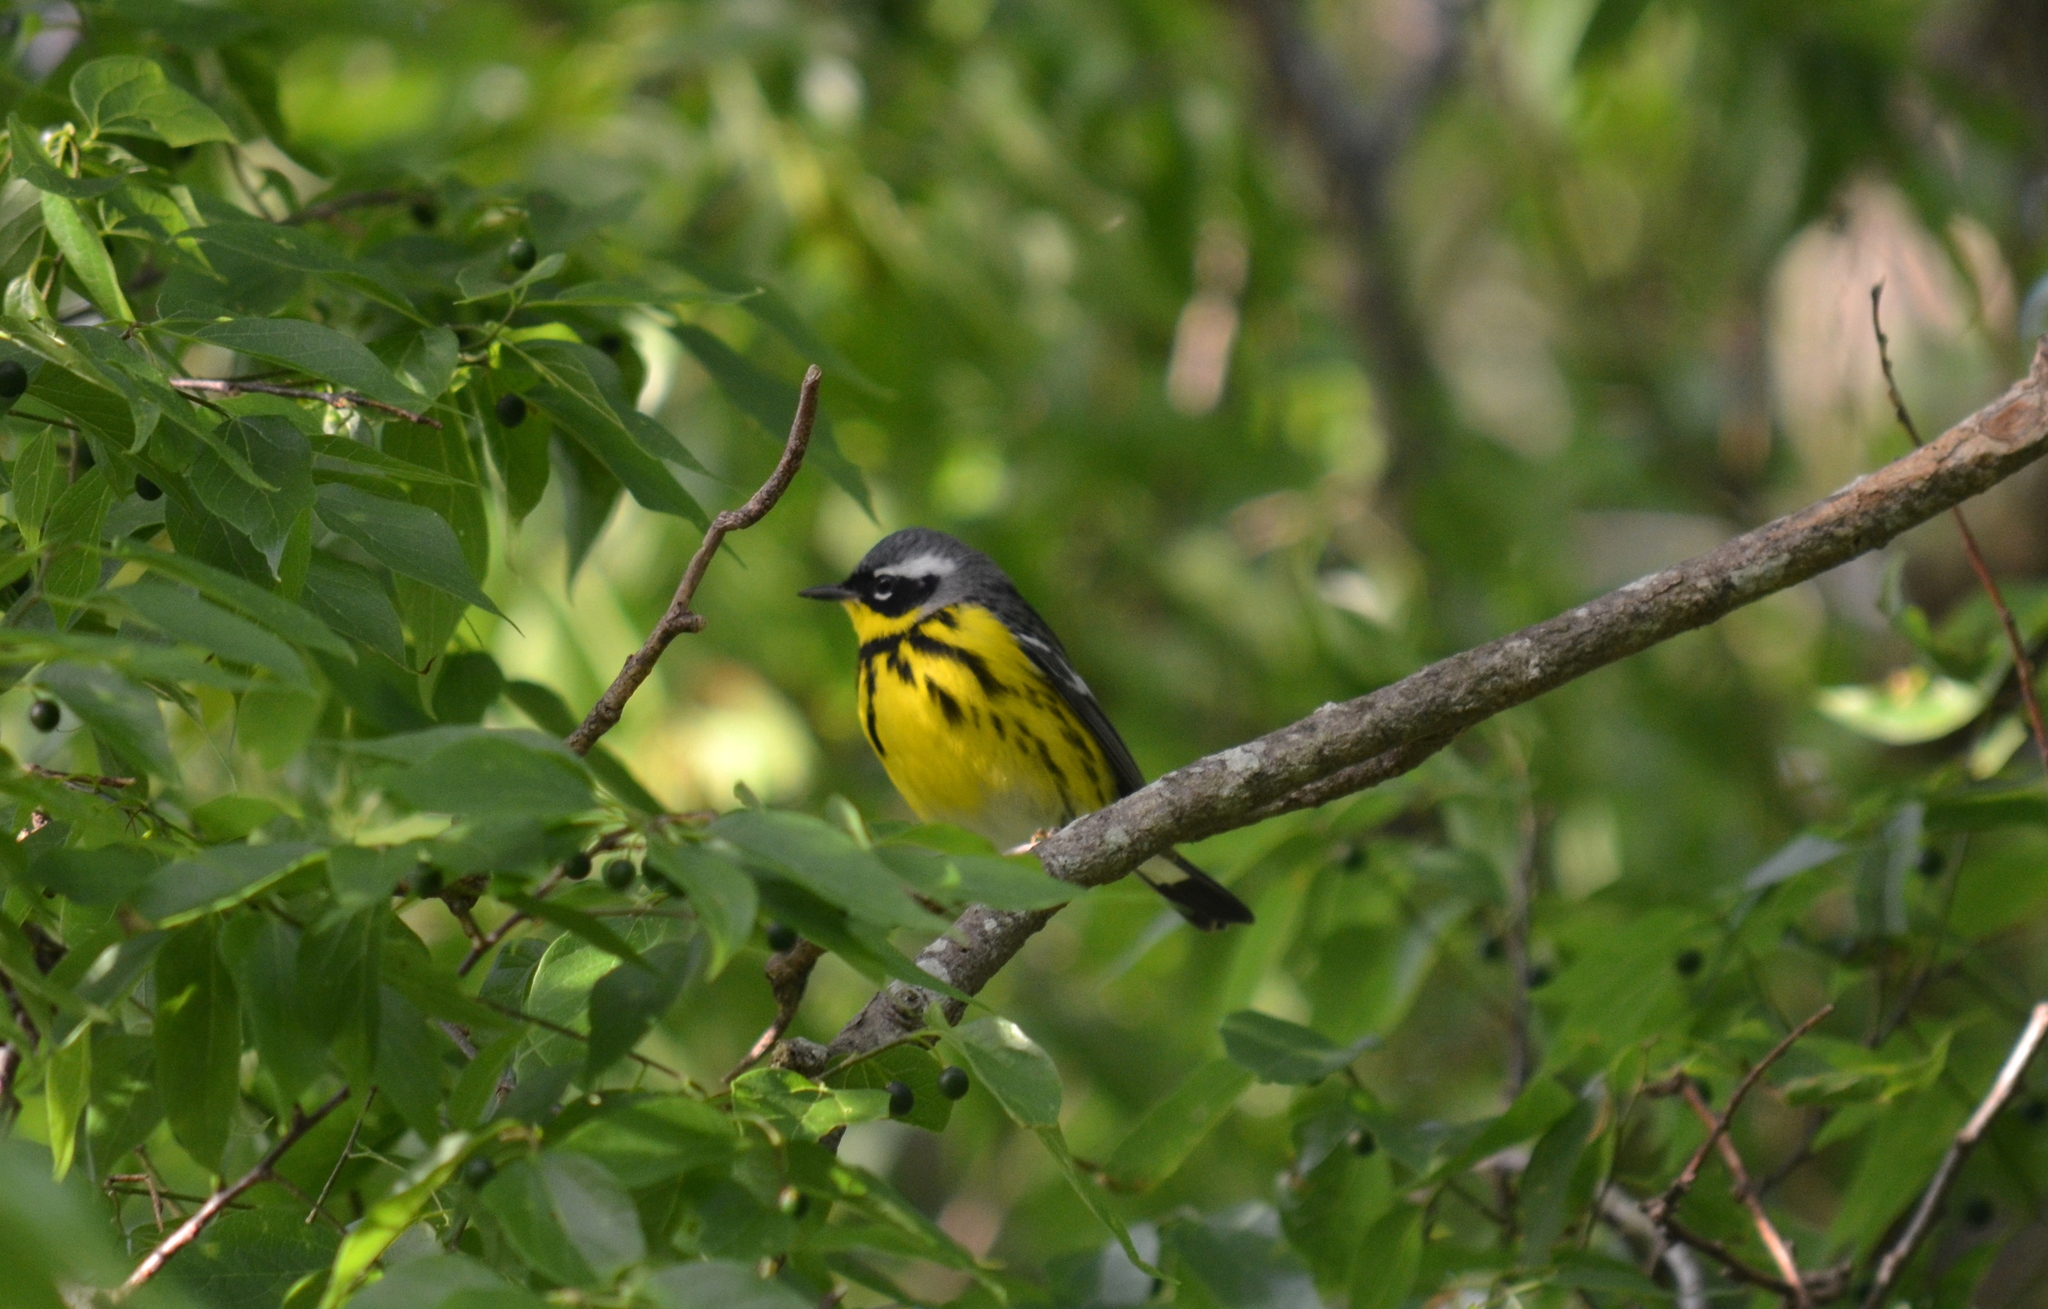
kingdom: Animalia
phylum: Chordata
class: Aves
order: Passeriformes
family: Parulidae
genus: Setophaga
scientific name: Setophaga magnolia
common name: Magnolia warbler
